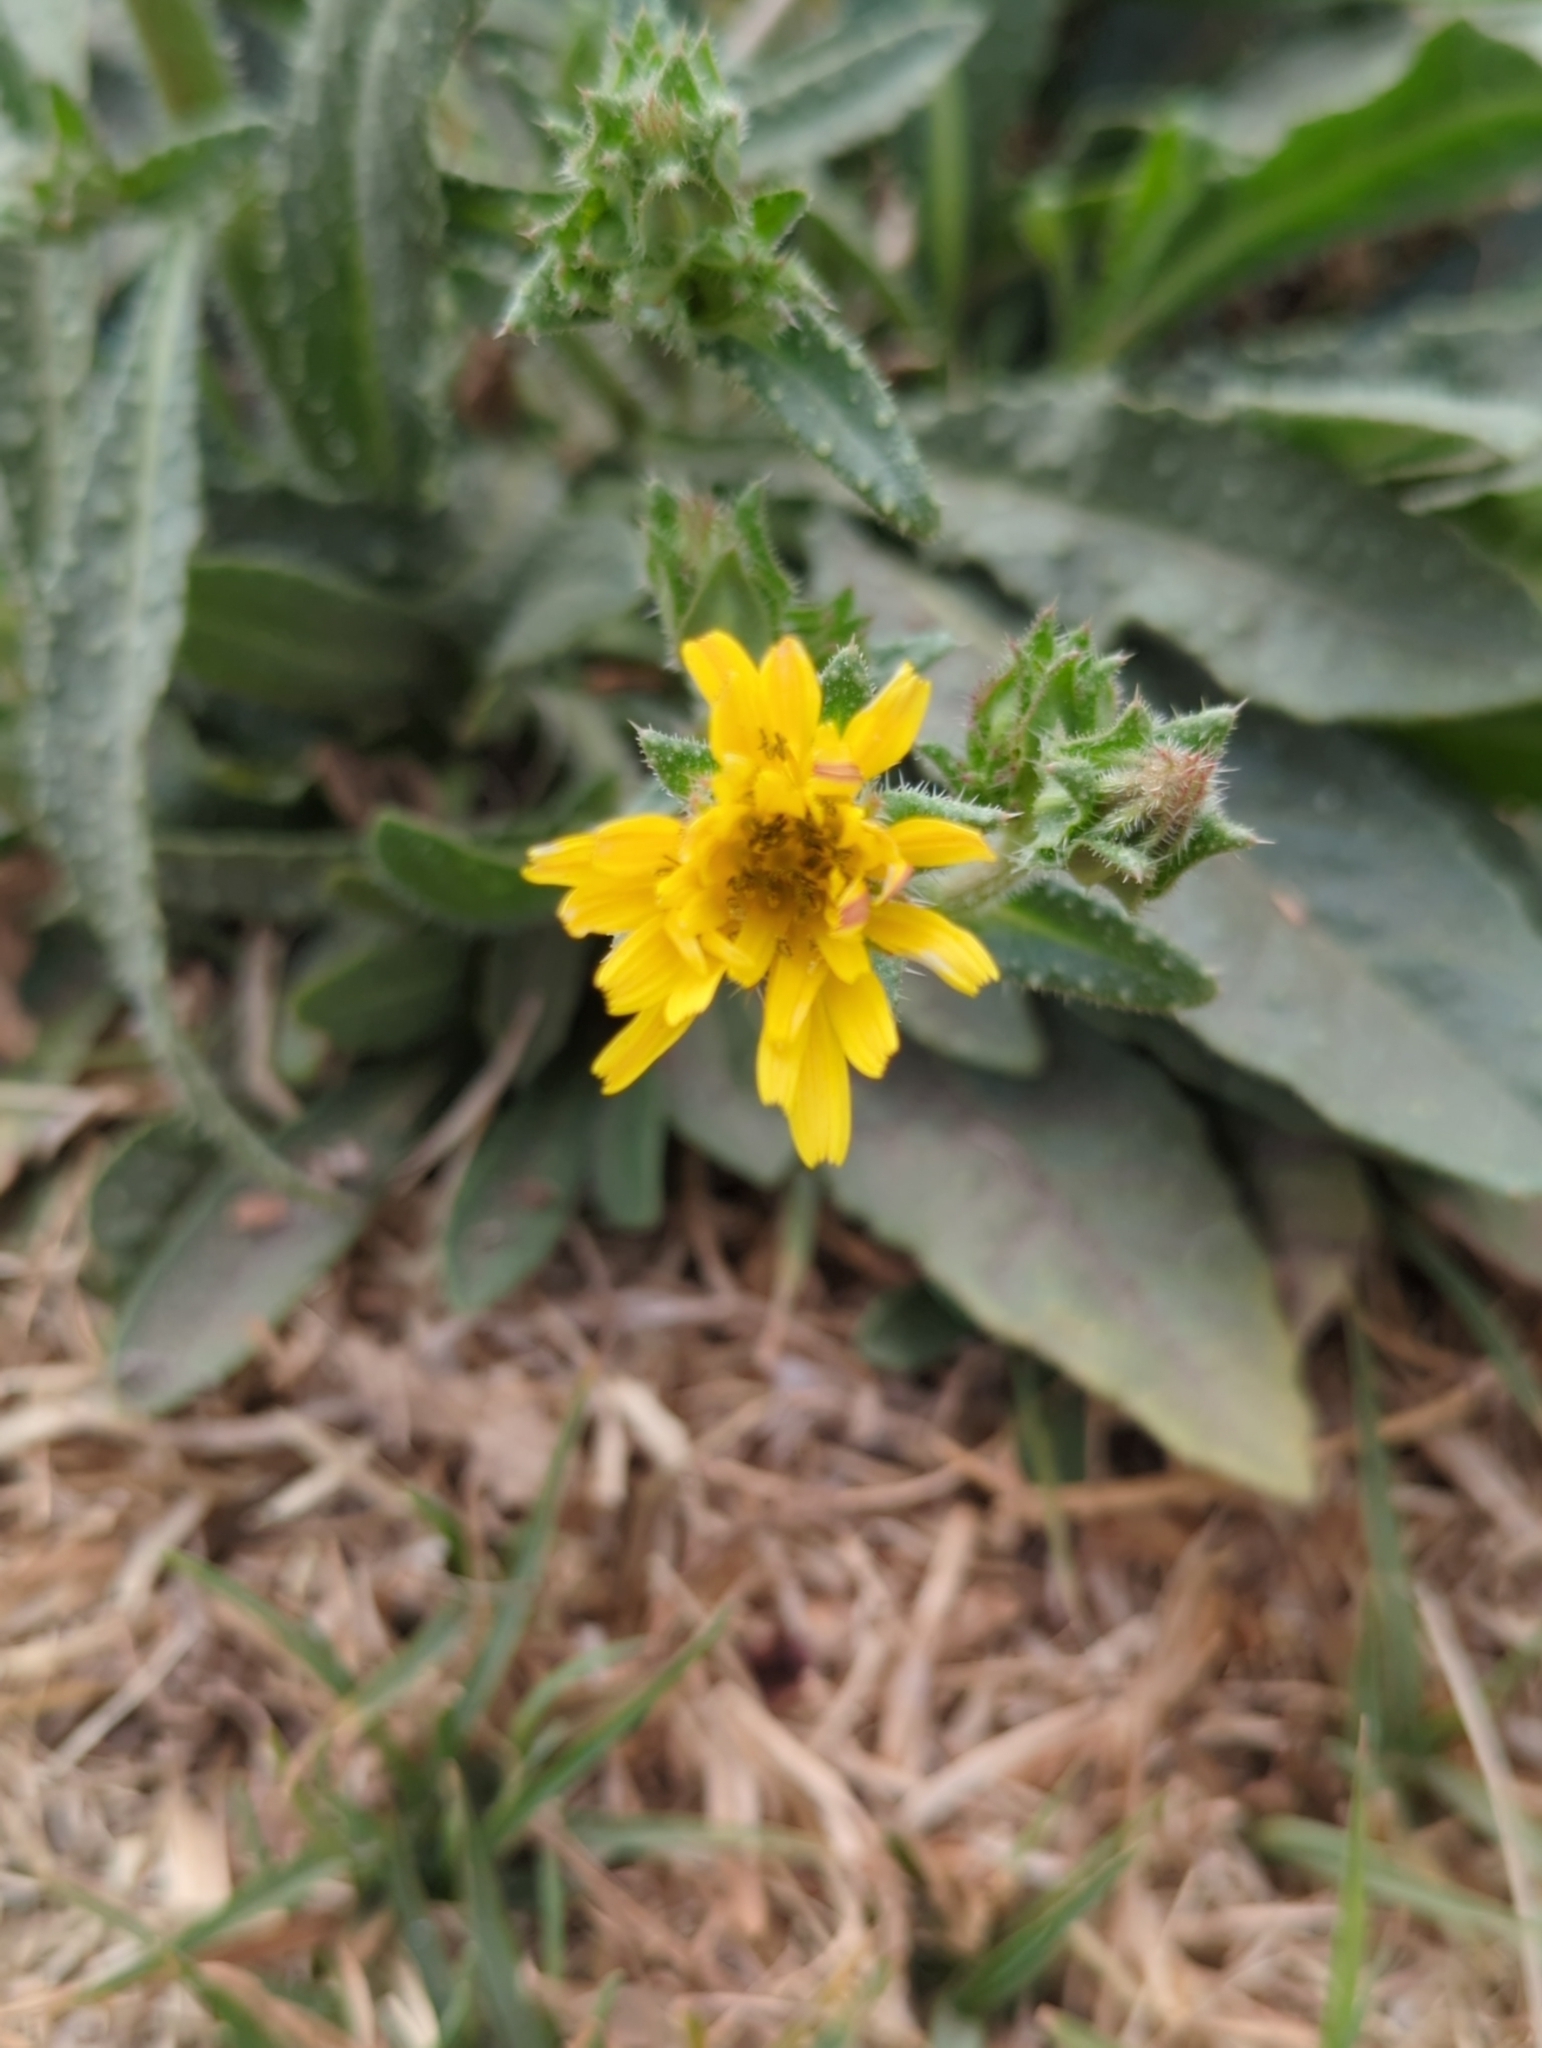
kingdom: Plantae
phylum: Tracheophyta
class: Magnoliopsida
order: Asterales
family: Asteraceae
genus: Helminthotheca
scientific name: Helminthotheca echioides
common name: Ox-tongue
